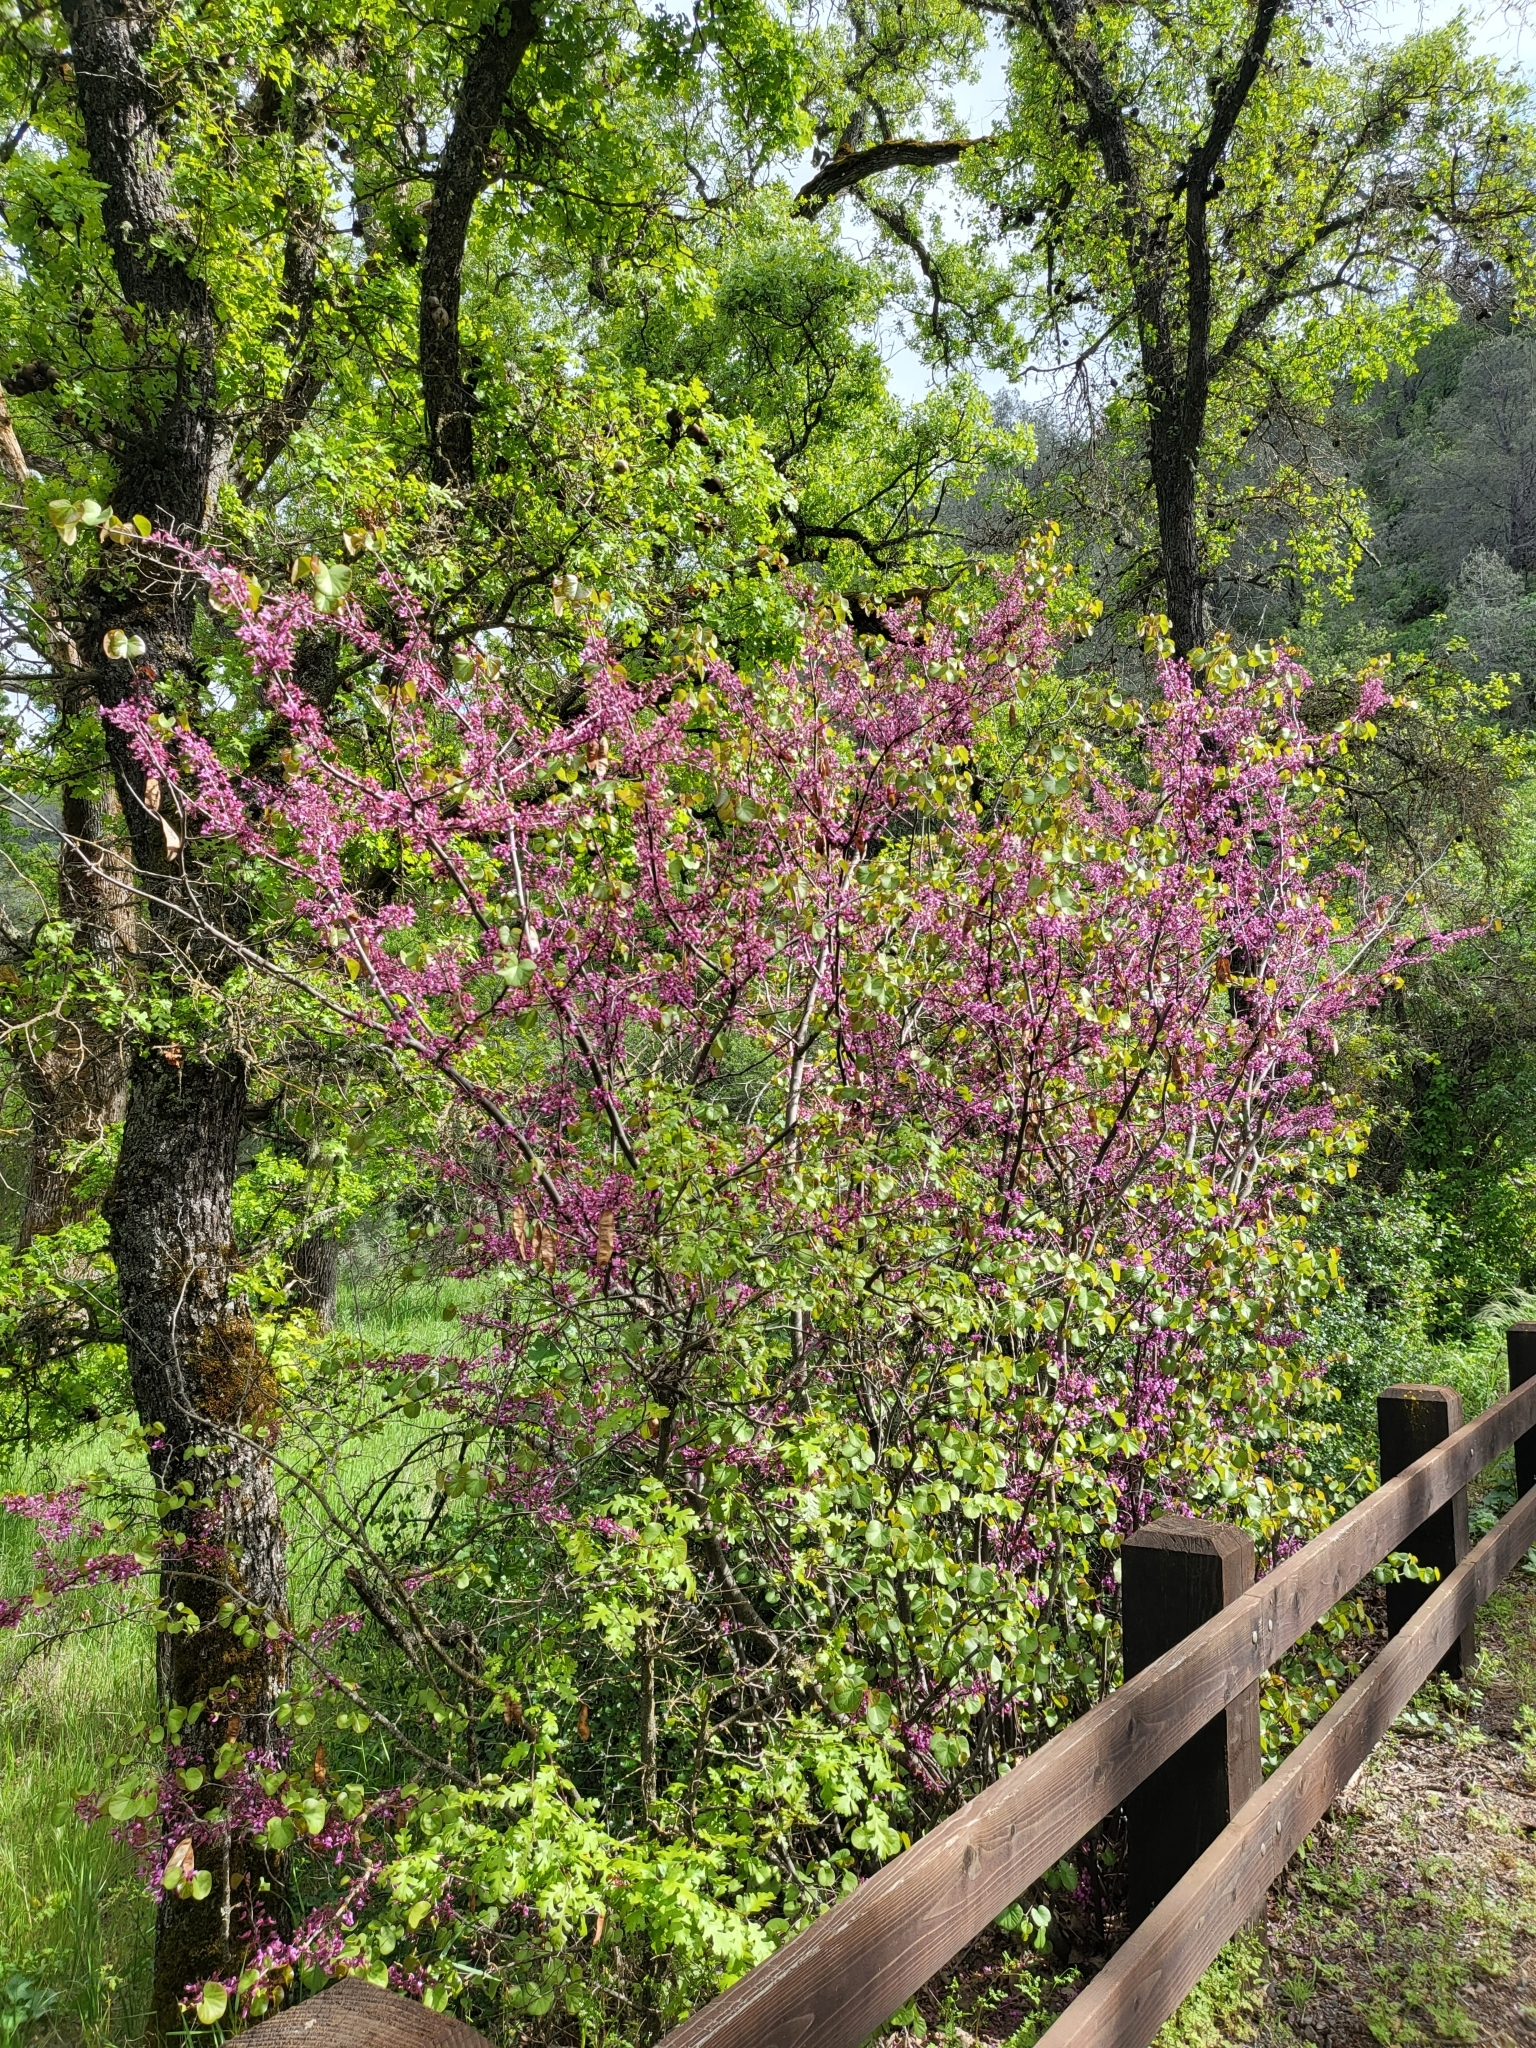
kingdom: Plantae
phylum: Tracheophyta
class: Magnoliopsida
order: Fabales
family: Fabaceae
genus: Cercis
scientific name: Cercis occidentalis
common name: California redbud
